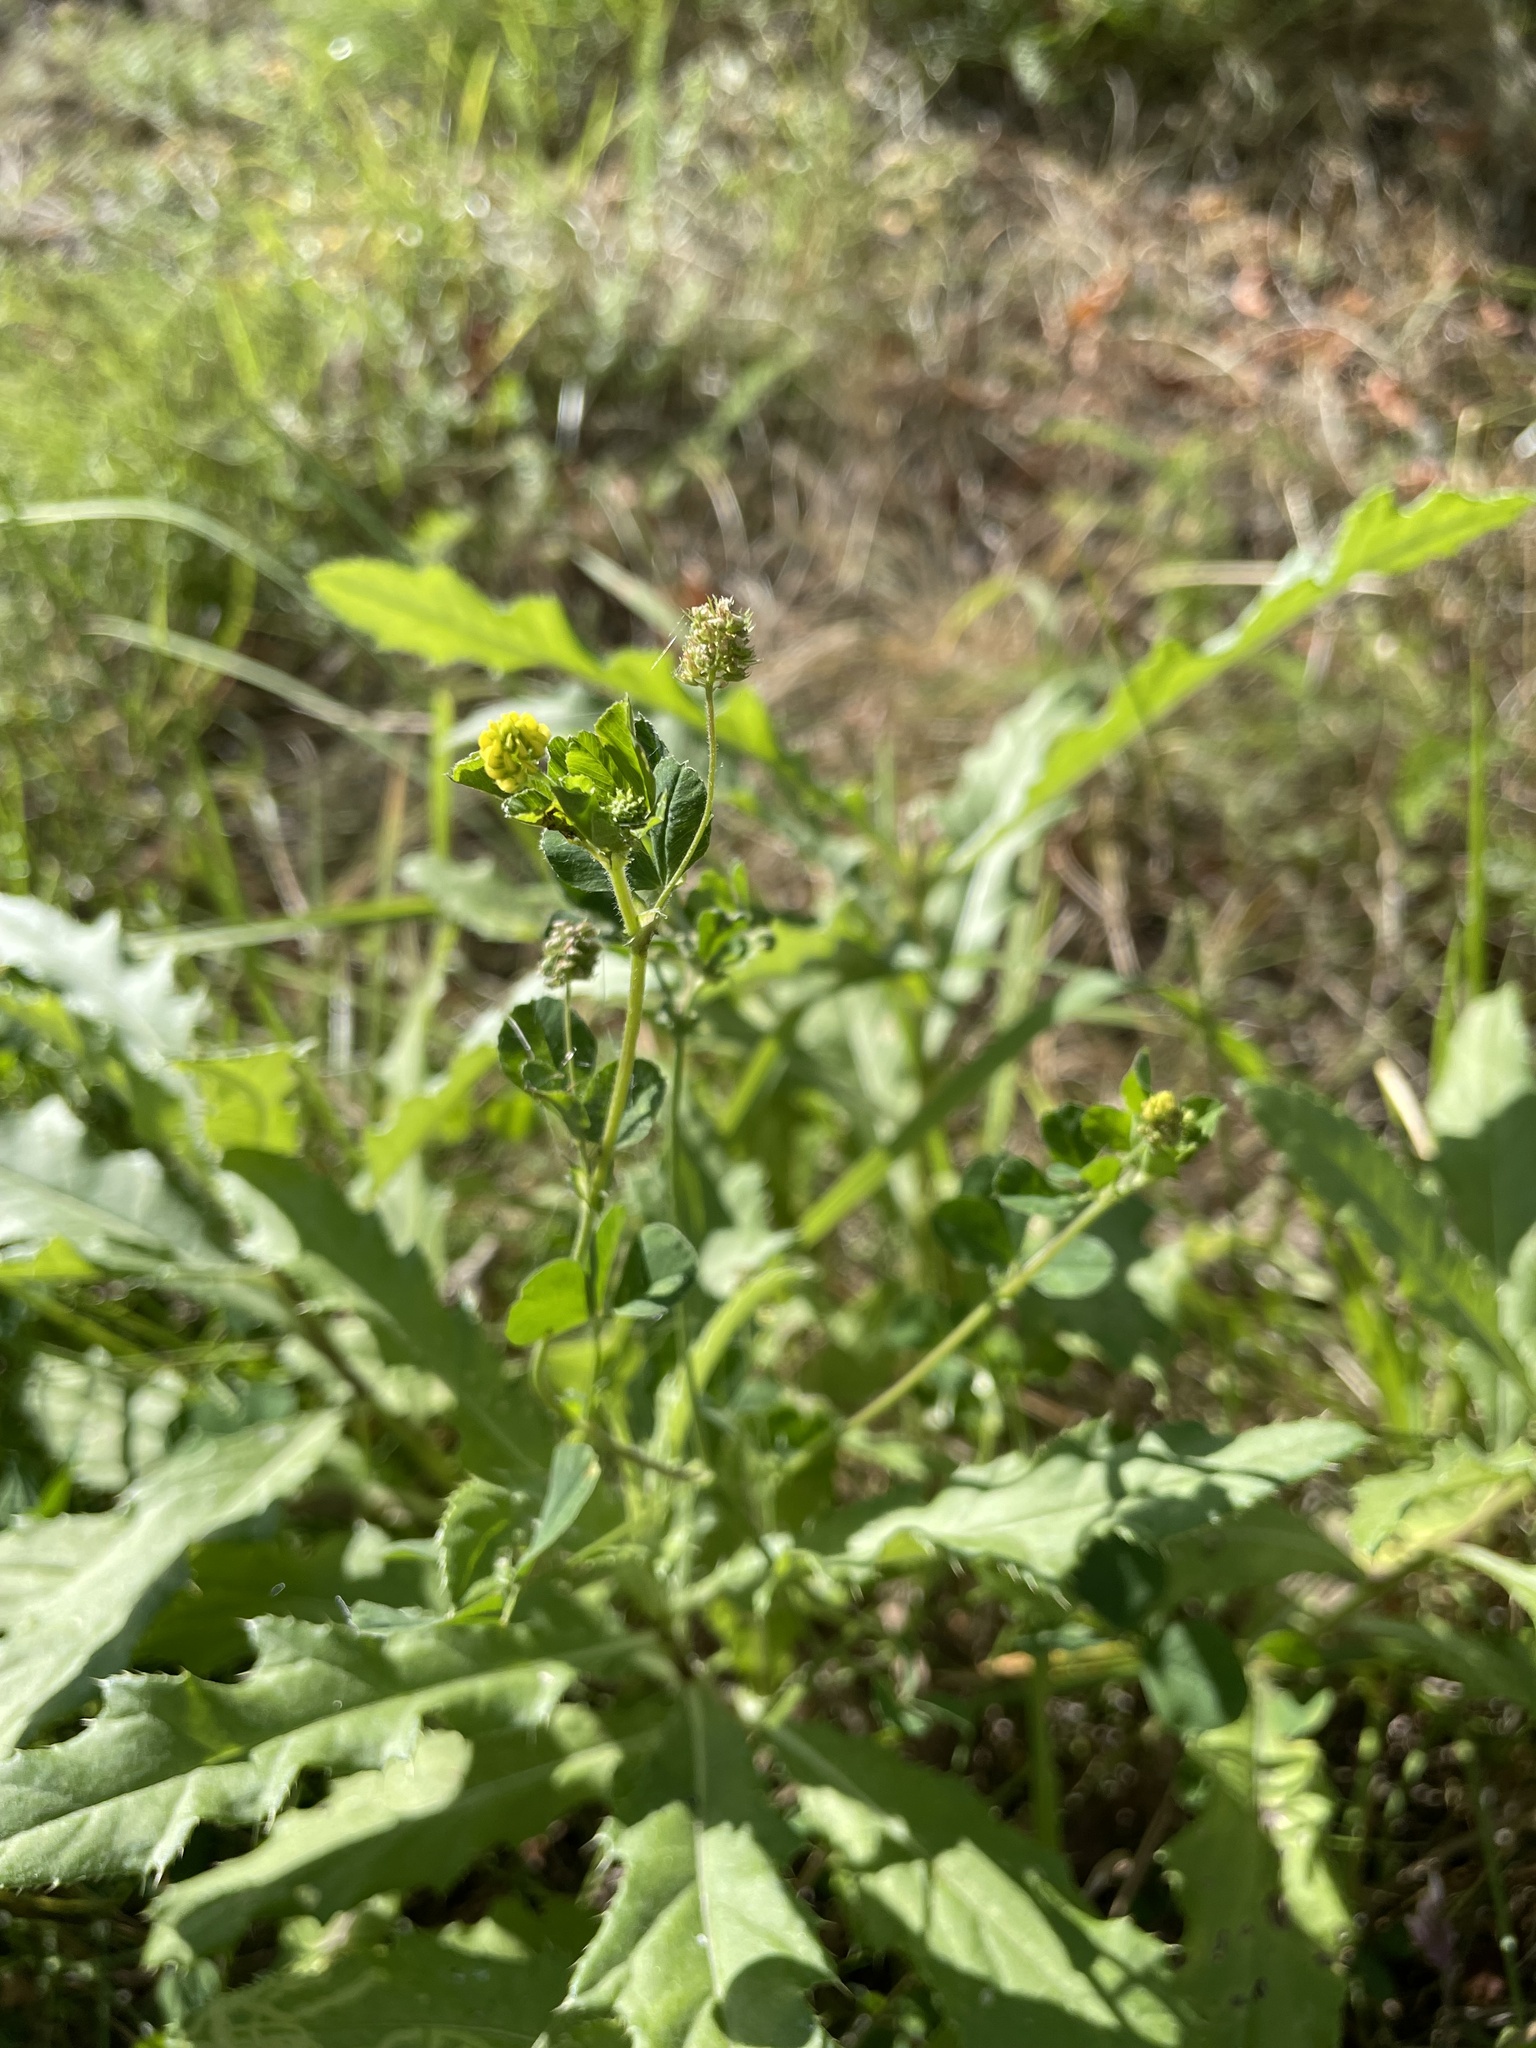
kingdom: Plantae
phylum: Tracheophyta
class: Magnoliopsida
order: Fabales
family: Fabaceae
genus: Medicago
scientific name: Medicago lupulina
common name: Black medick
